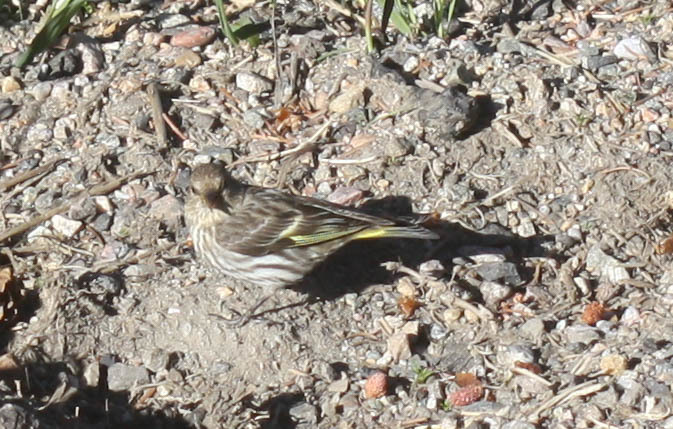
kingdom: Animalia
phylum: Chordata
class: Aves
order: Passeriformes
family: Fringillidae
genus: Spinus
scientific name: Spinus pinus
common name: Pine siskin
